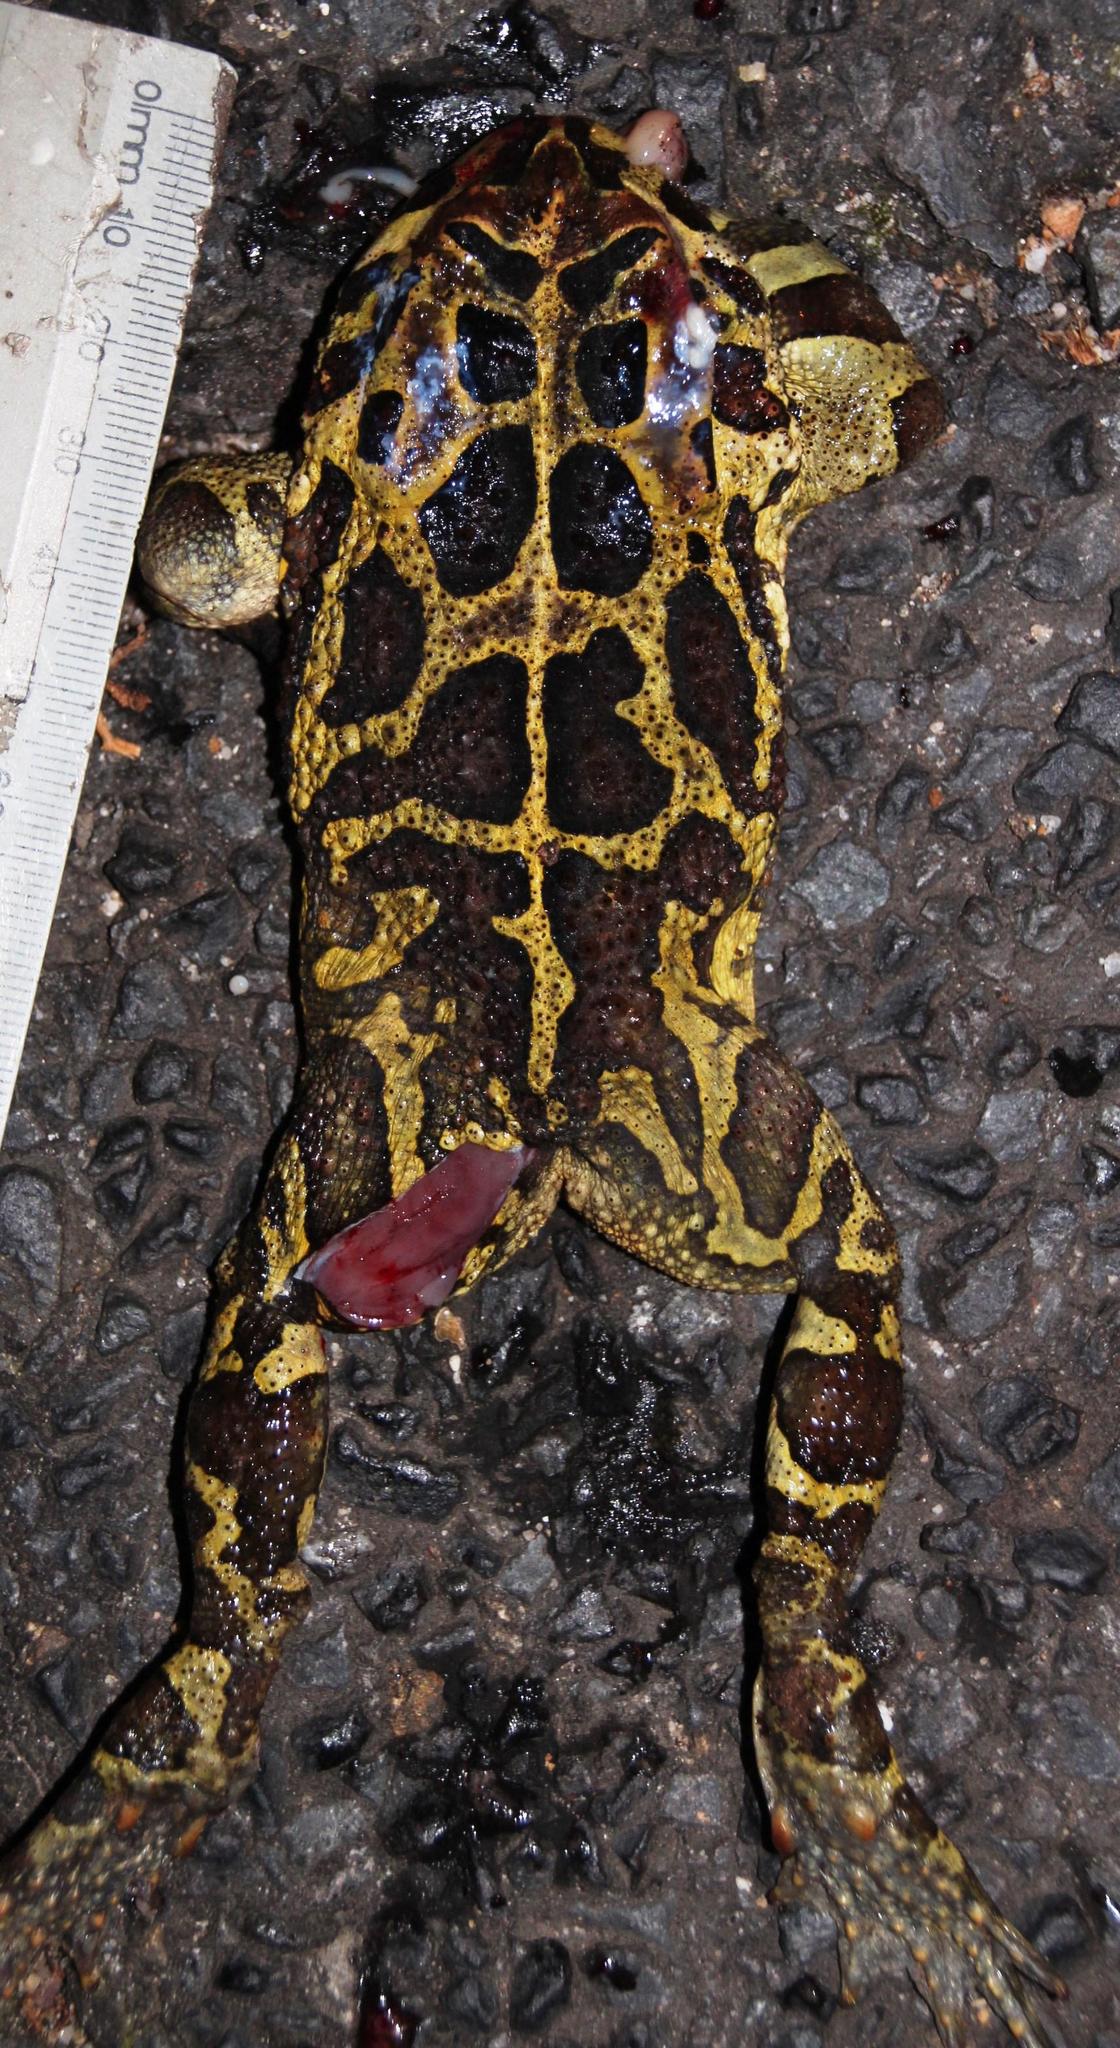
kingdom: Animalia
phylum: Chordata
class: Amphibia
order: Anura
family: Bufonidae
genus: Sclerophrys
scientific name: Sclerophrys pantherina
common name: Panther toad
